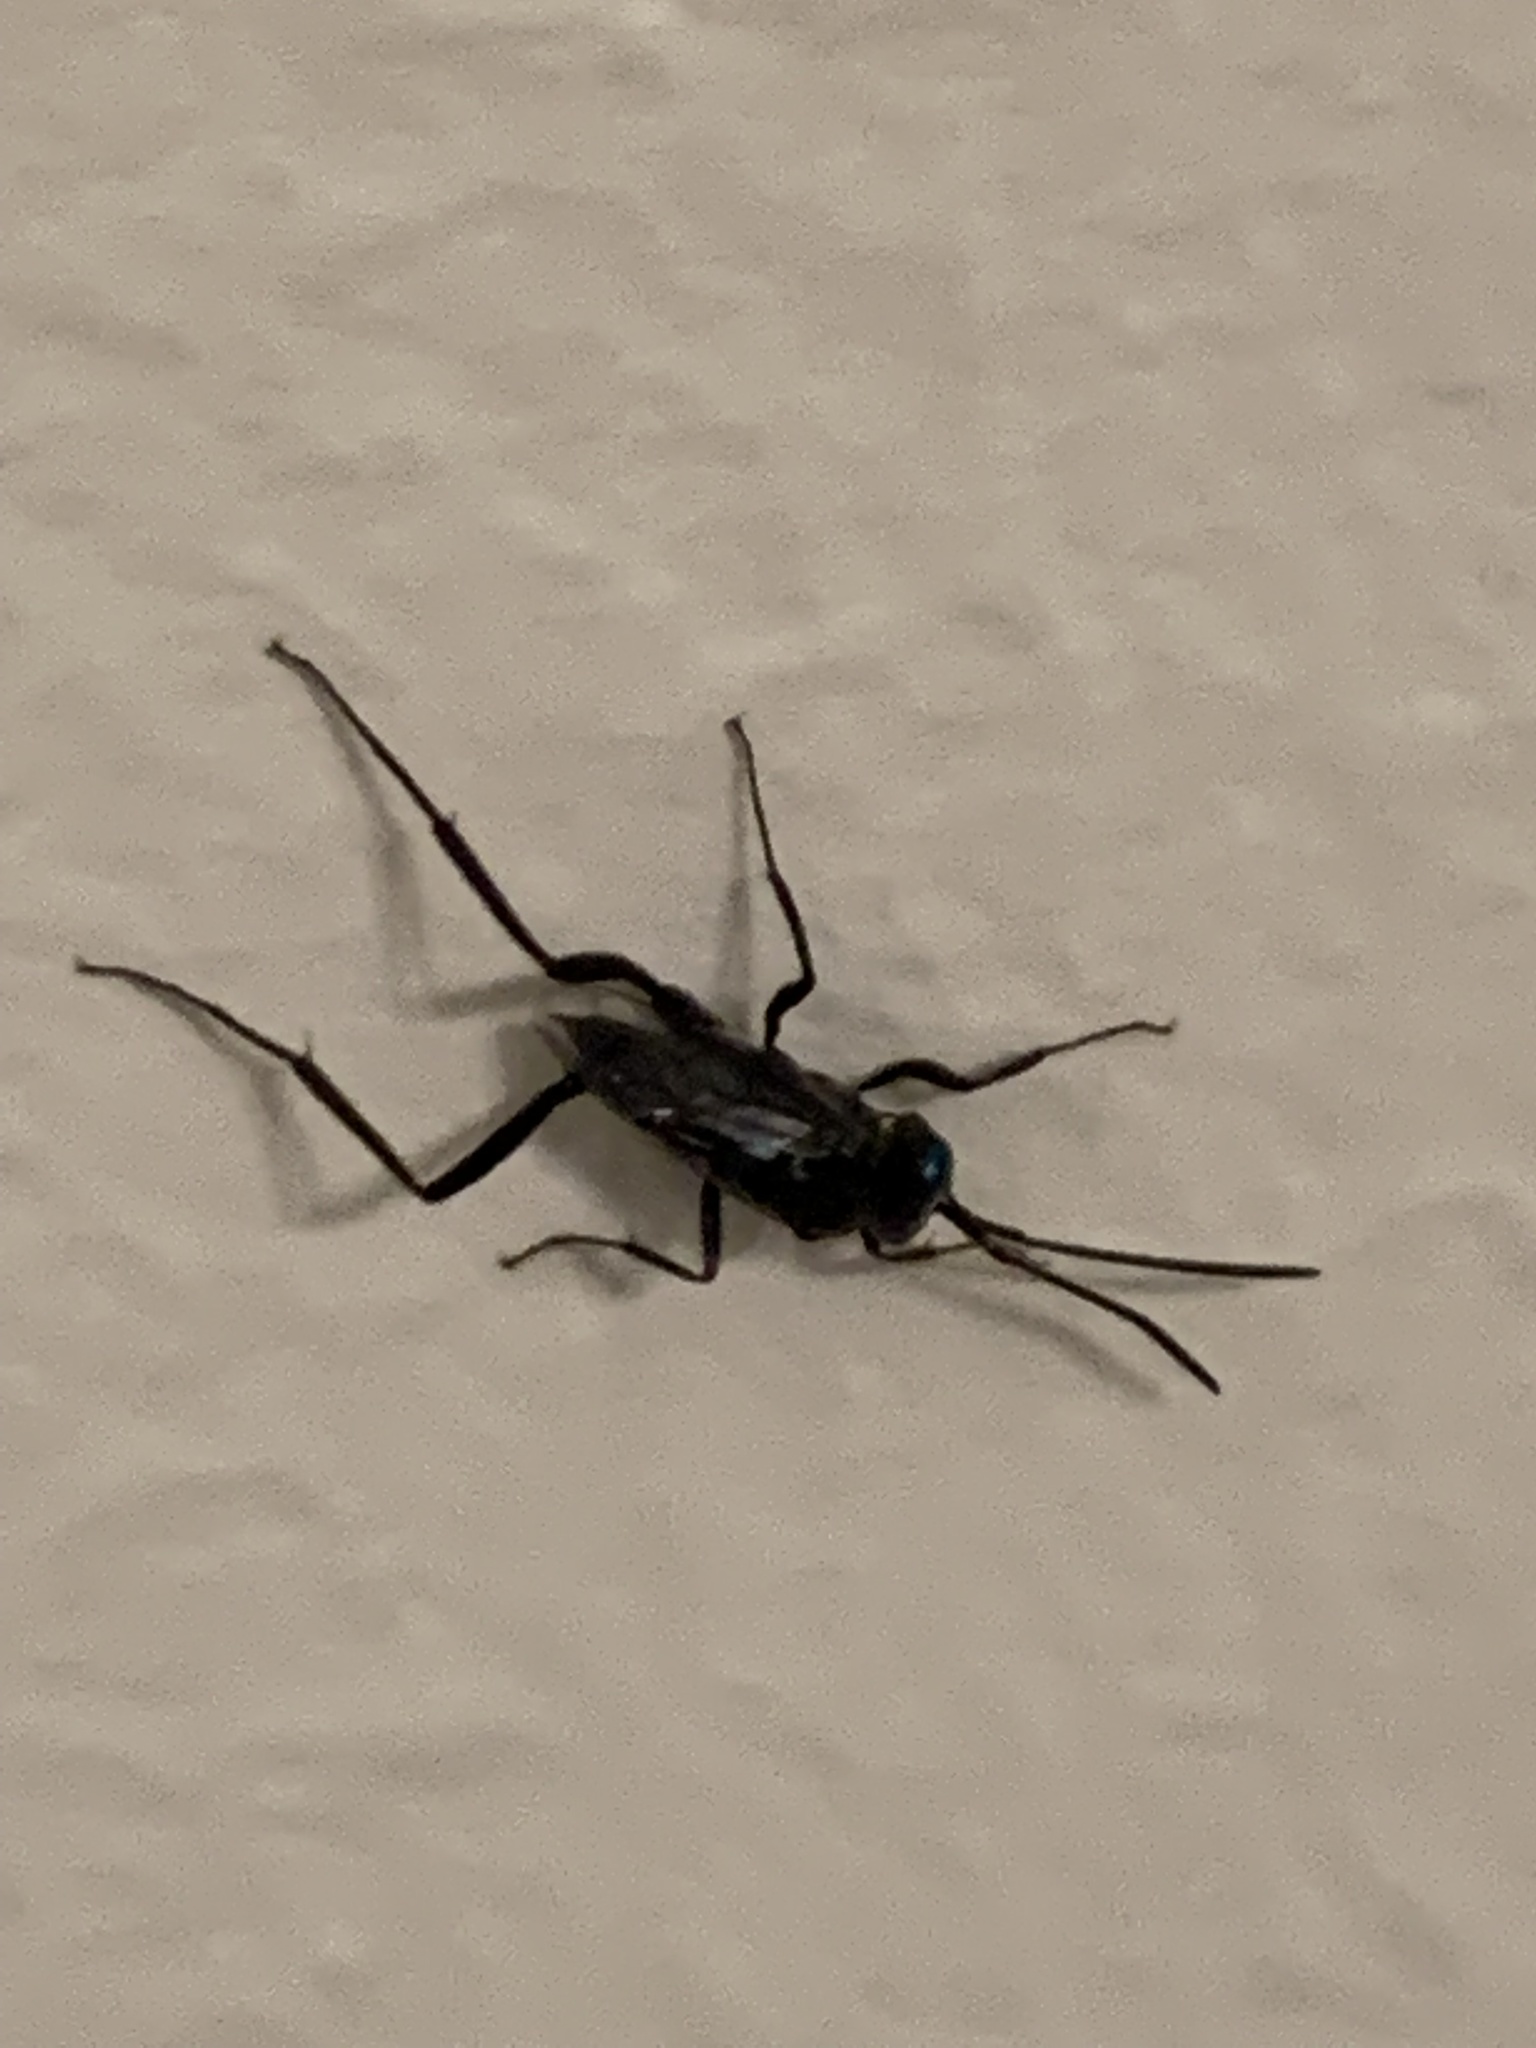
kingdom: Animalia
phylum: Arthropoda
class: Insecta
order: Hymenoptera
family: Evaniidae
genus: Evania
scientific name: Evania appendigaster
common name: Ensign wasp
